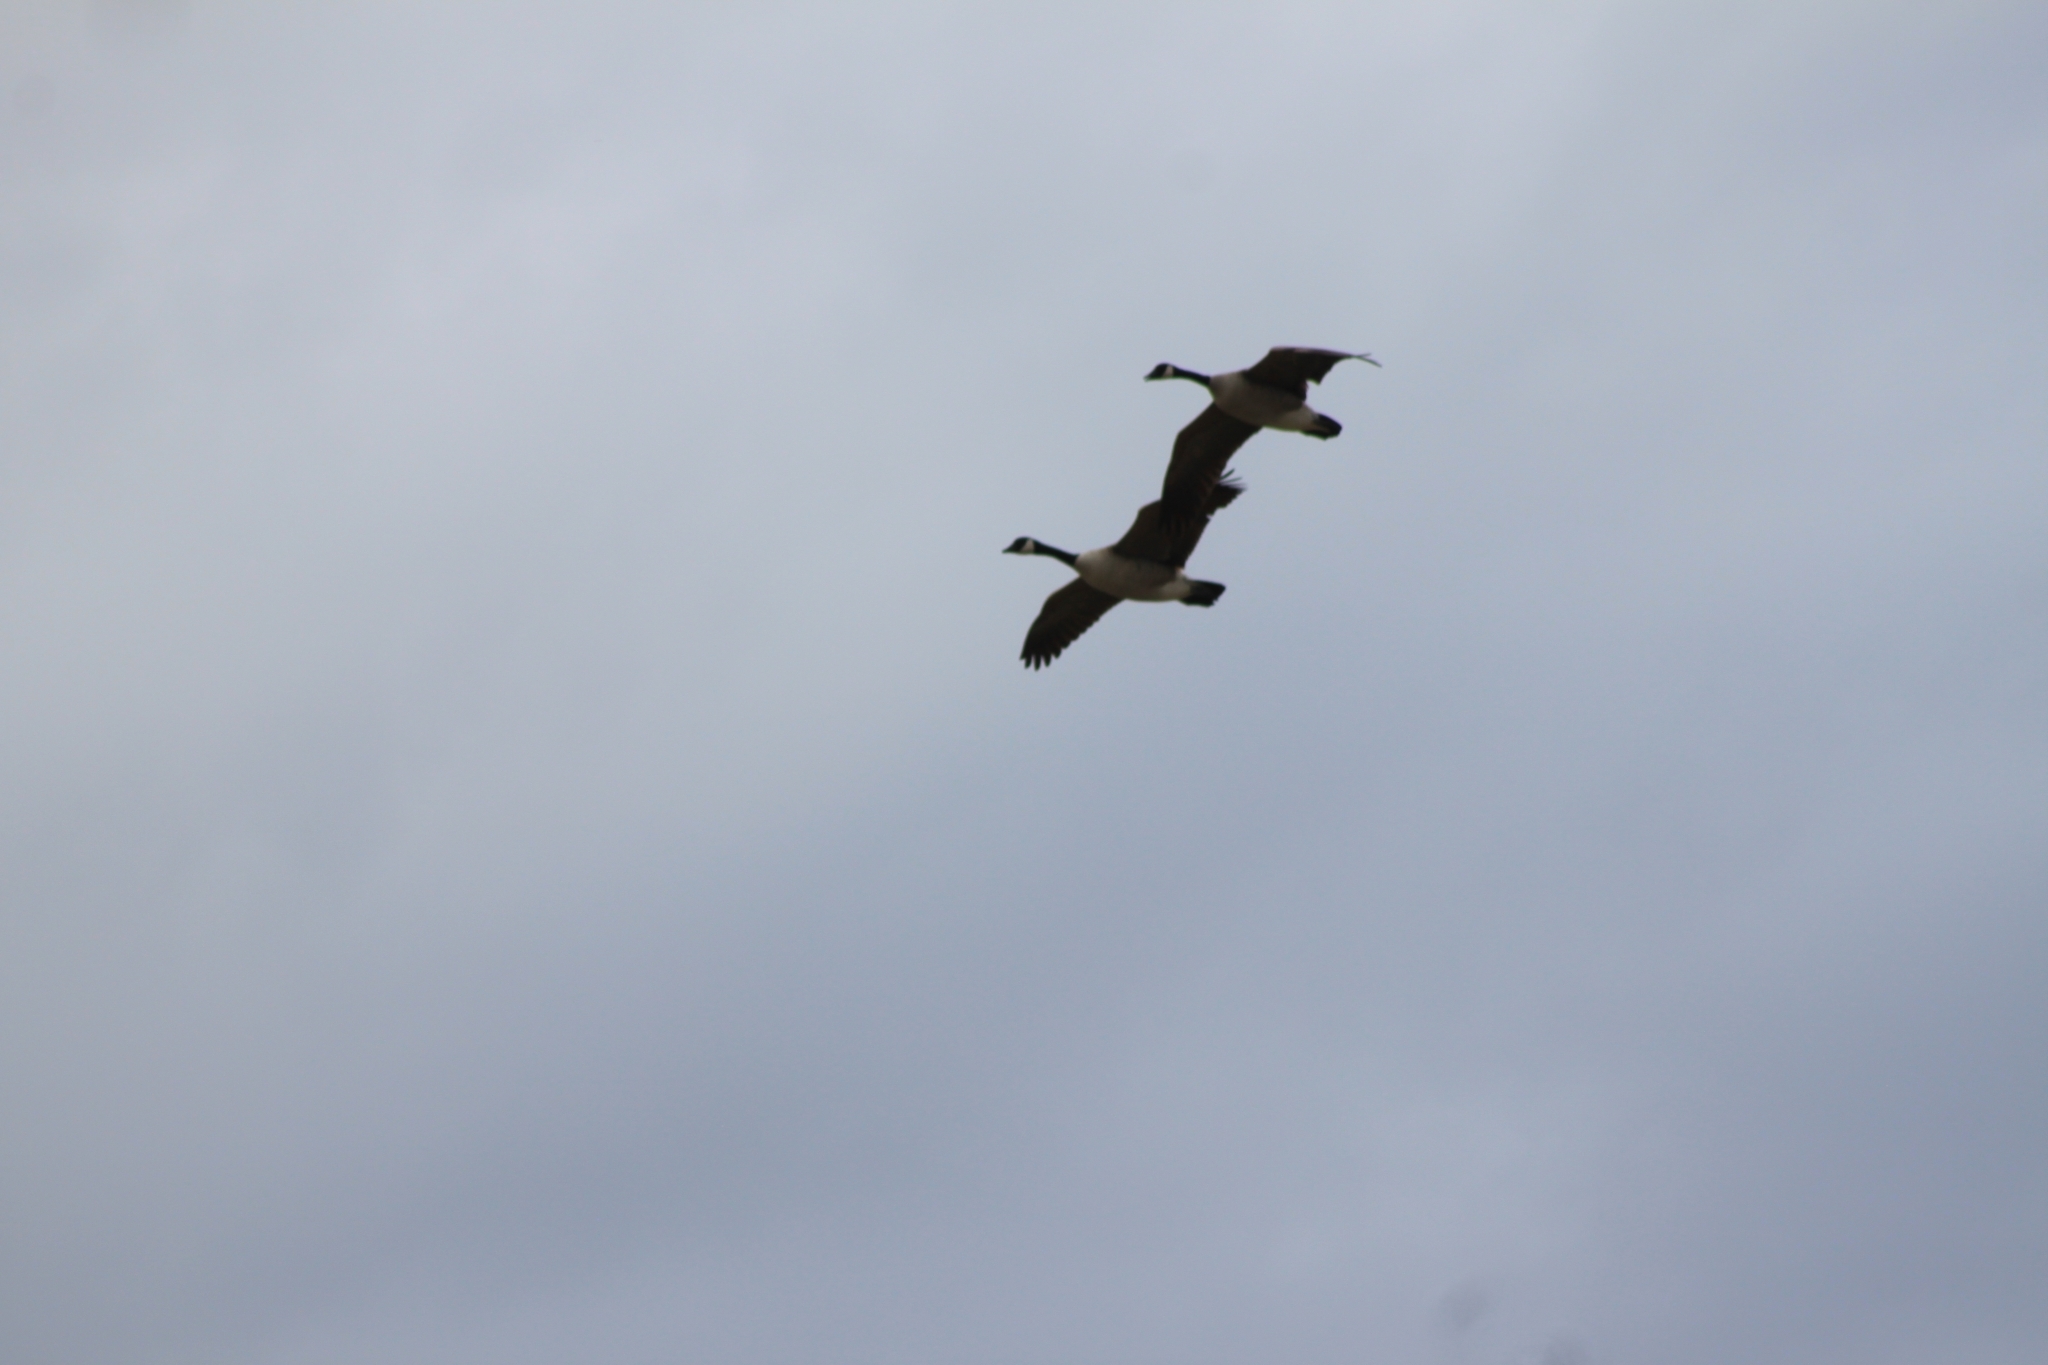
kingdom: Animalia
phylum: Chordata
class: Aves
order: Anseriformes
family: Anatidae
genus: Branta
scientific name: Branta canadensis
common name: Canada goose
